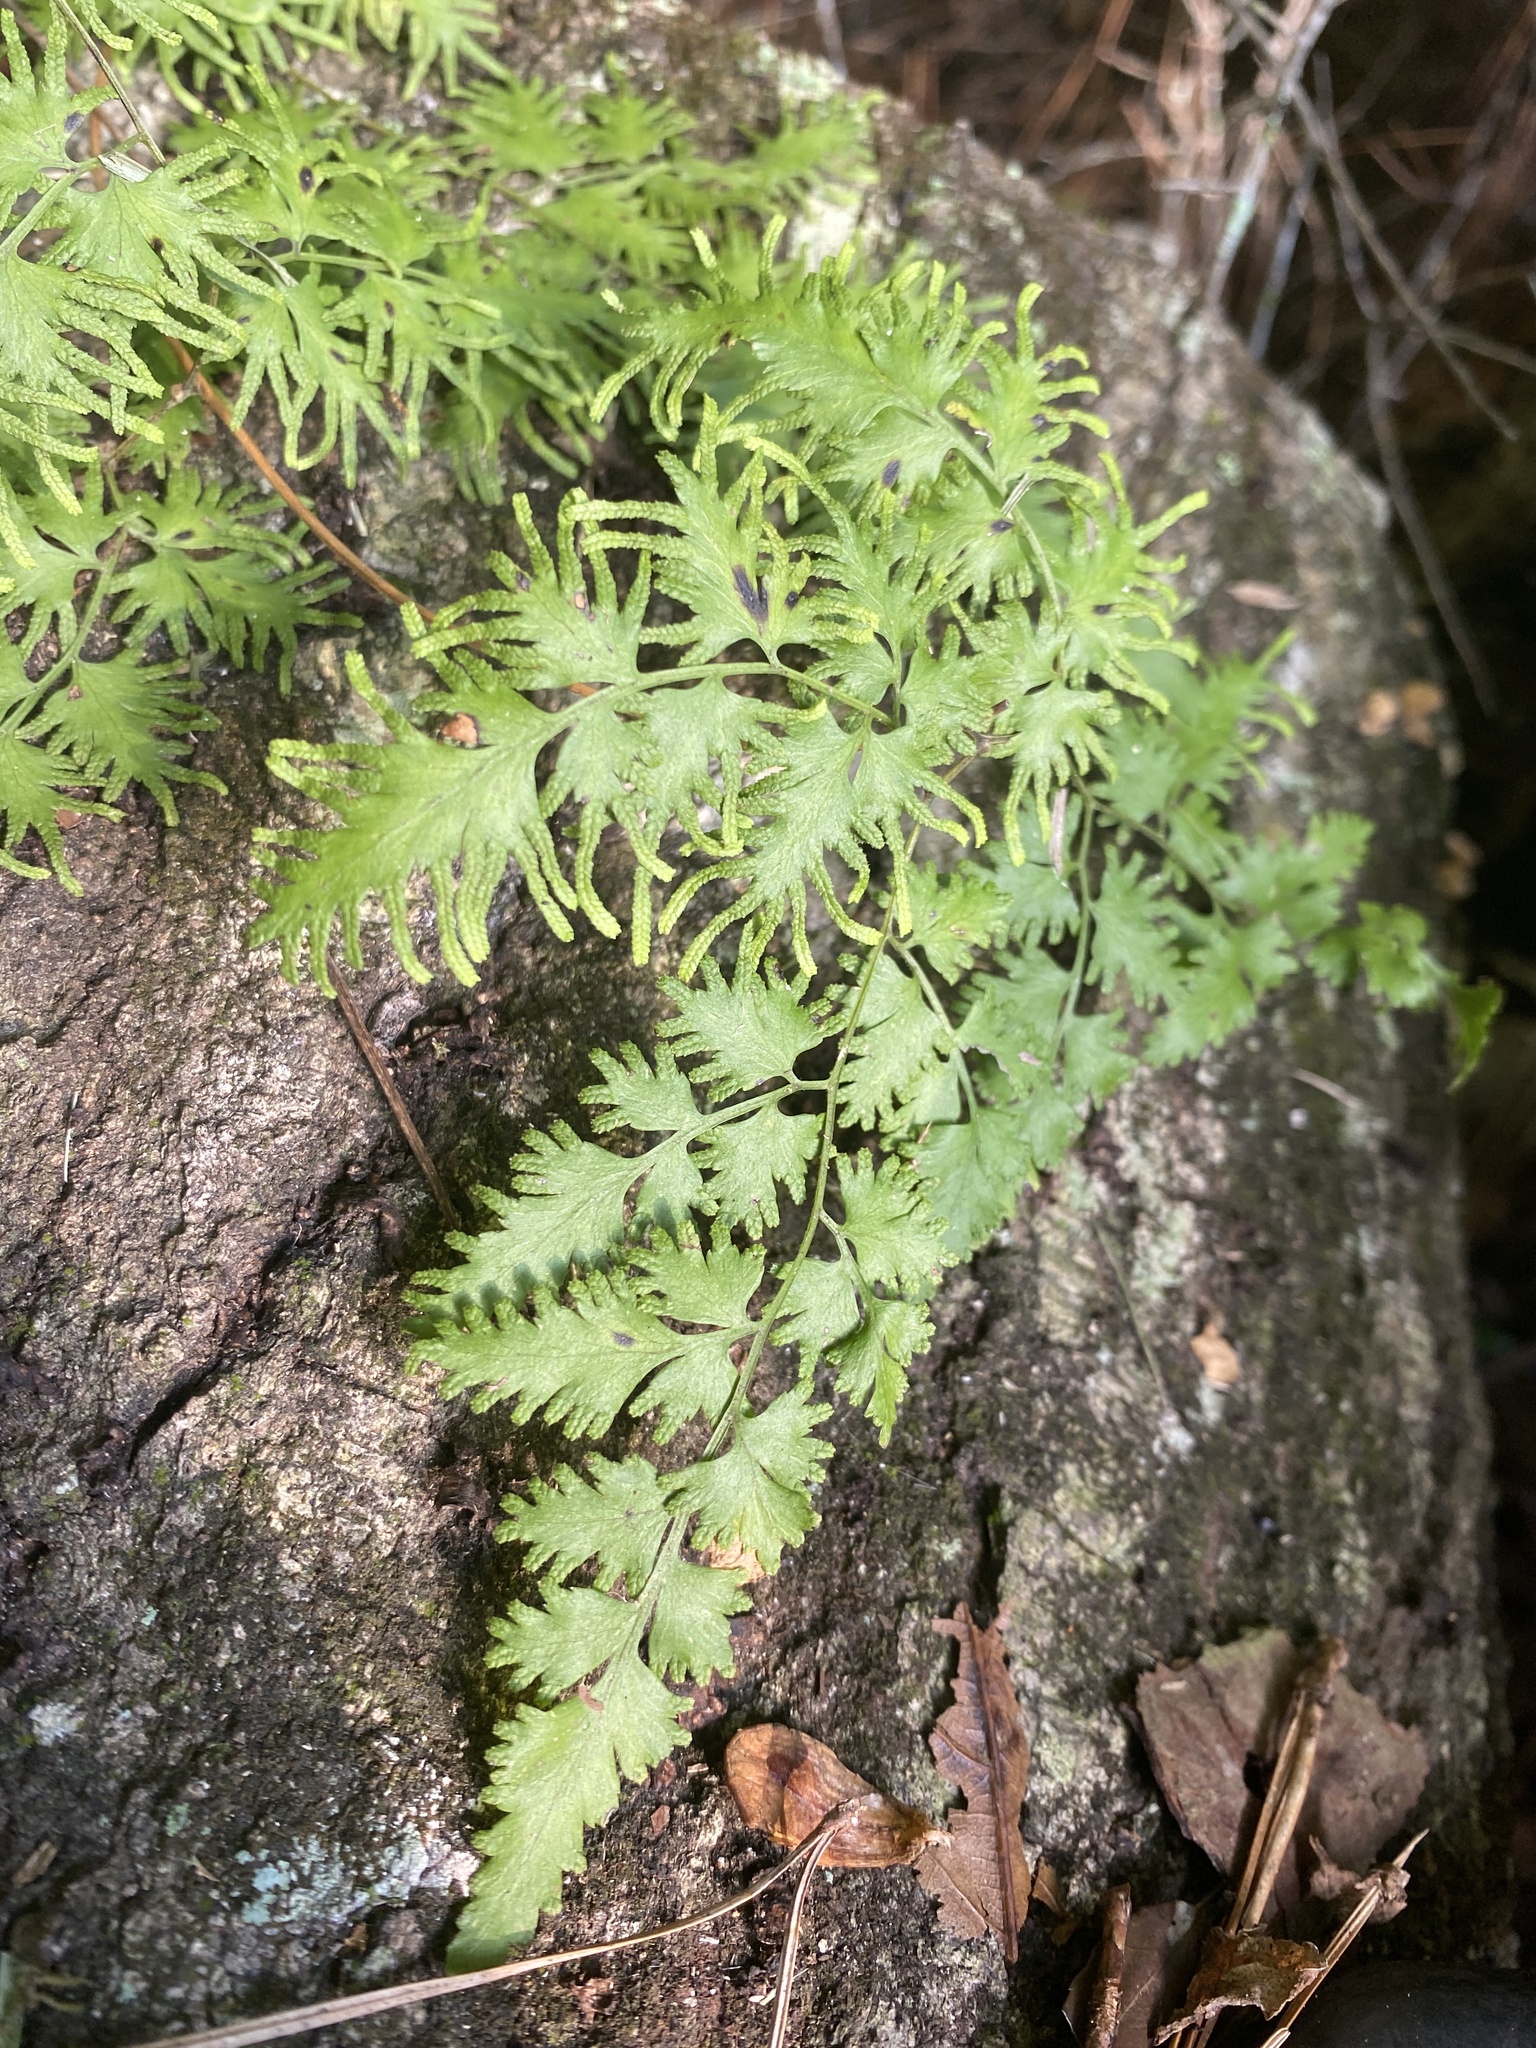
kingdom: Plantae
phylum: Tracheophyta
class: Polypodiopsida
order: Schizaeales
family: Lygodiaceae
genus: Lygodium
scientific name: Lygodium japonicum
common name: Japanese climbing fern
